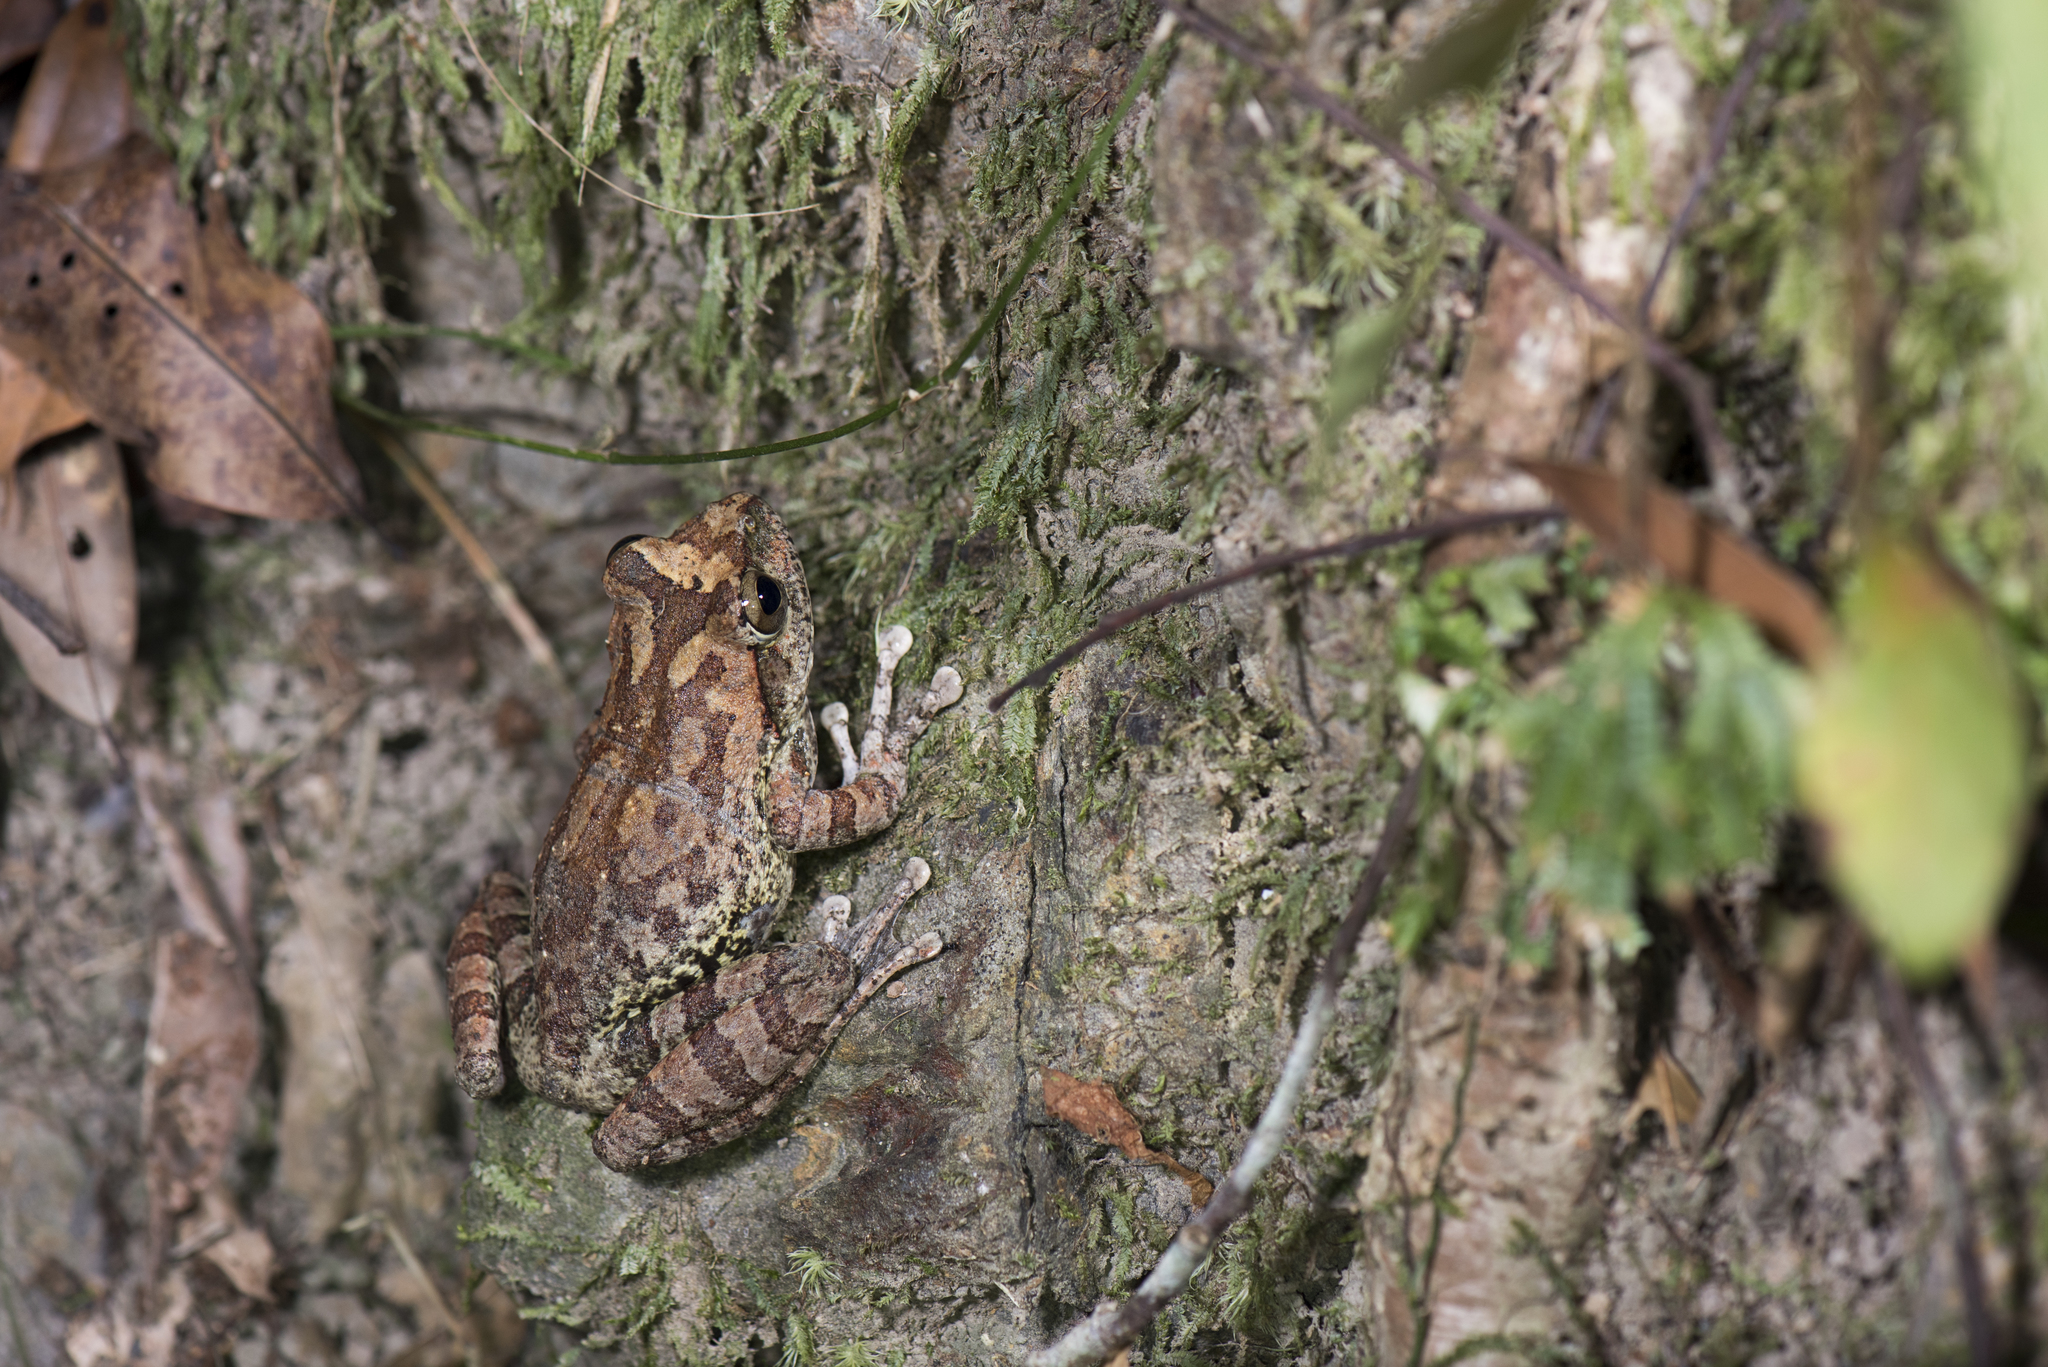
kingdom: Animalia
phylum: Chordata
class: Amphibia
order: Anura
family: Rhacophoridae
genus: Buergeria
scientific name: Buergeria robusta
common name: Brown treefrog
